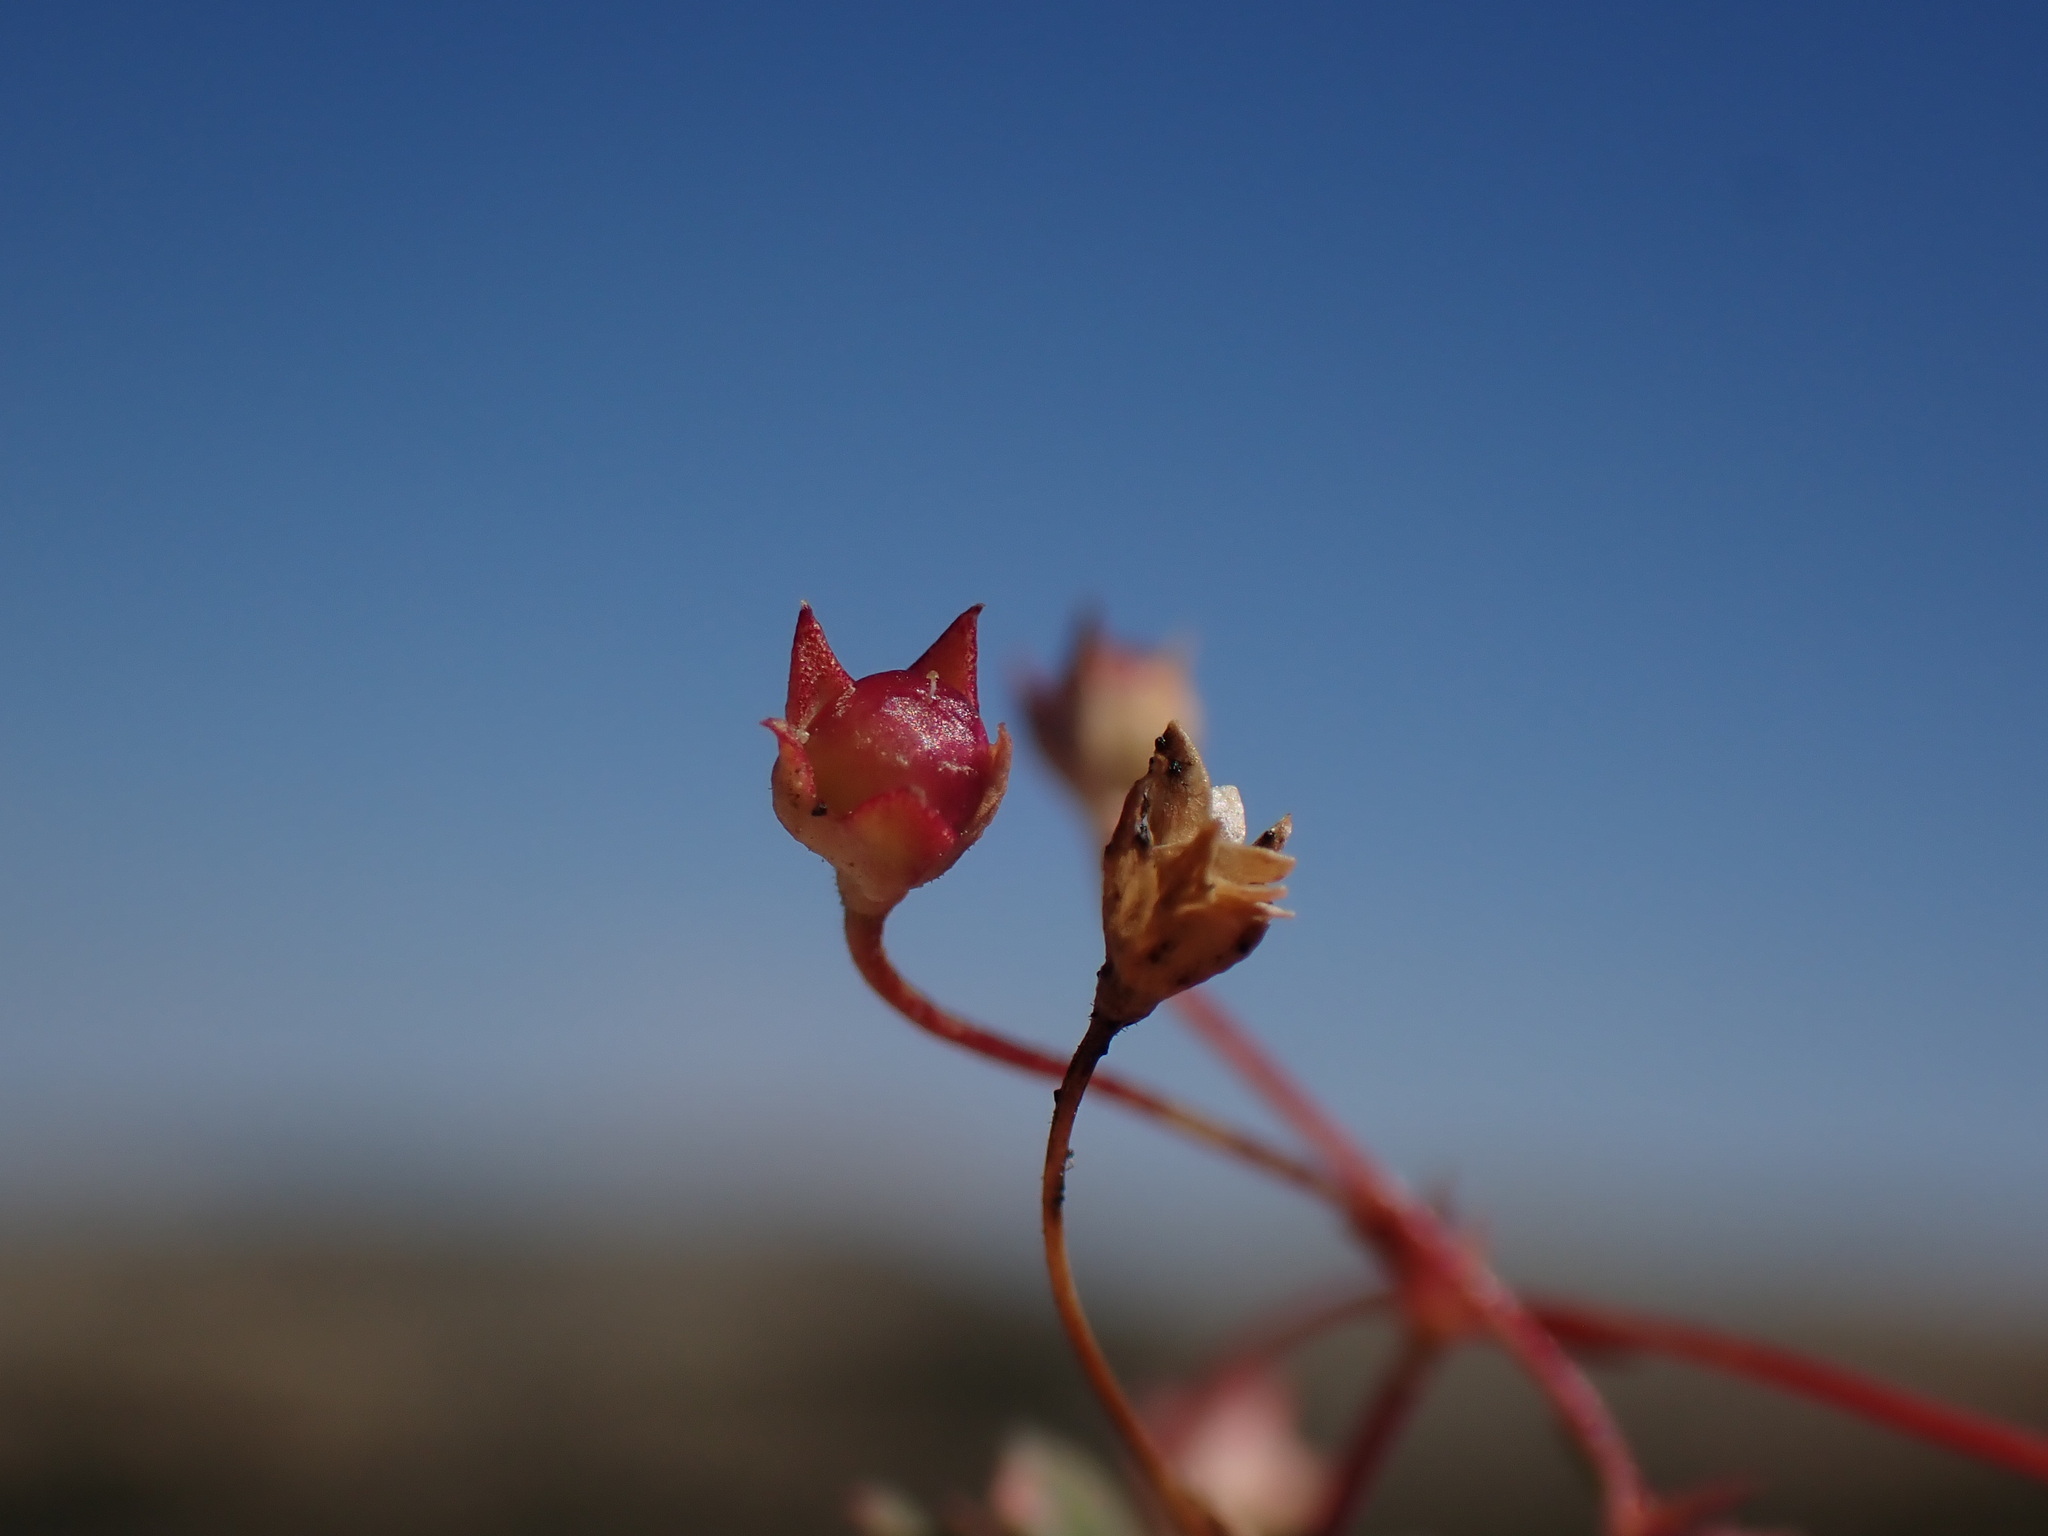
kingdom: Plantae
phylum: Tracheophyta
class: Magnoliopsida
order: Ericales
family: Primulaceae
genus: Androsace
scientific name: Androsace septentrionalis
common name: Hairy northern fairy-candelabra
